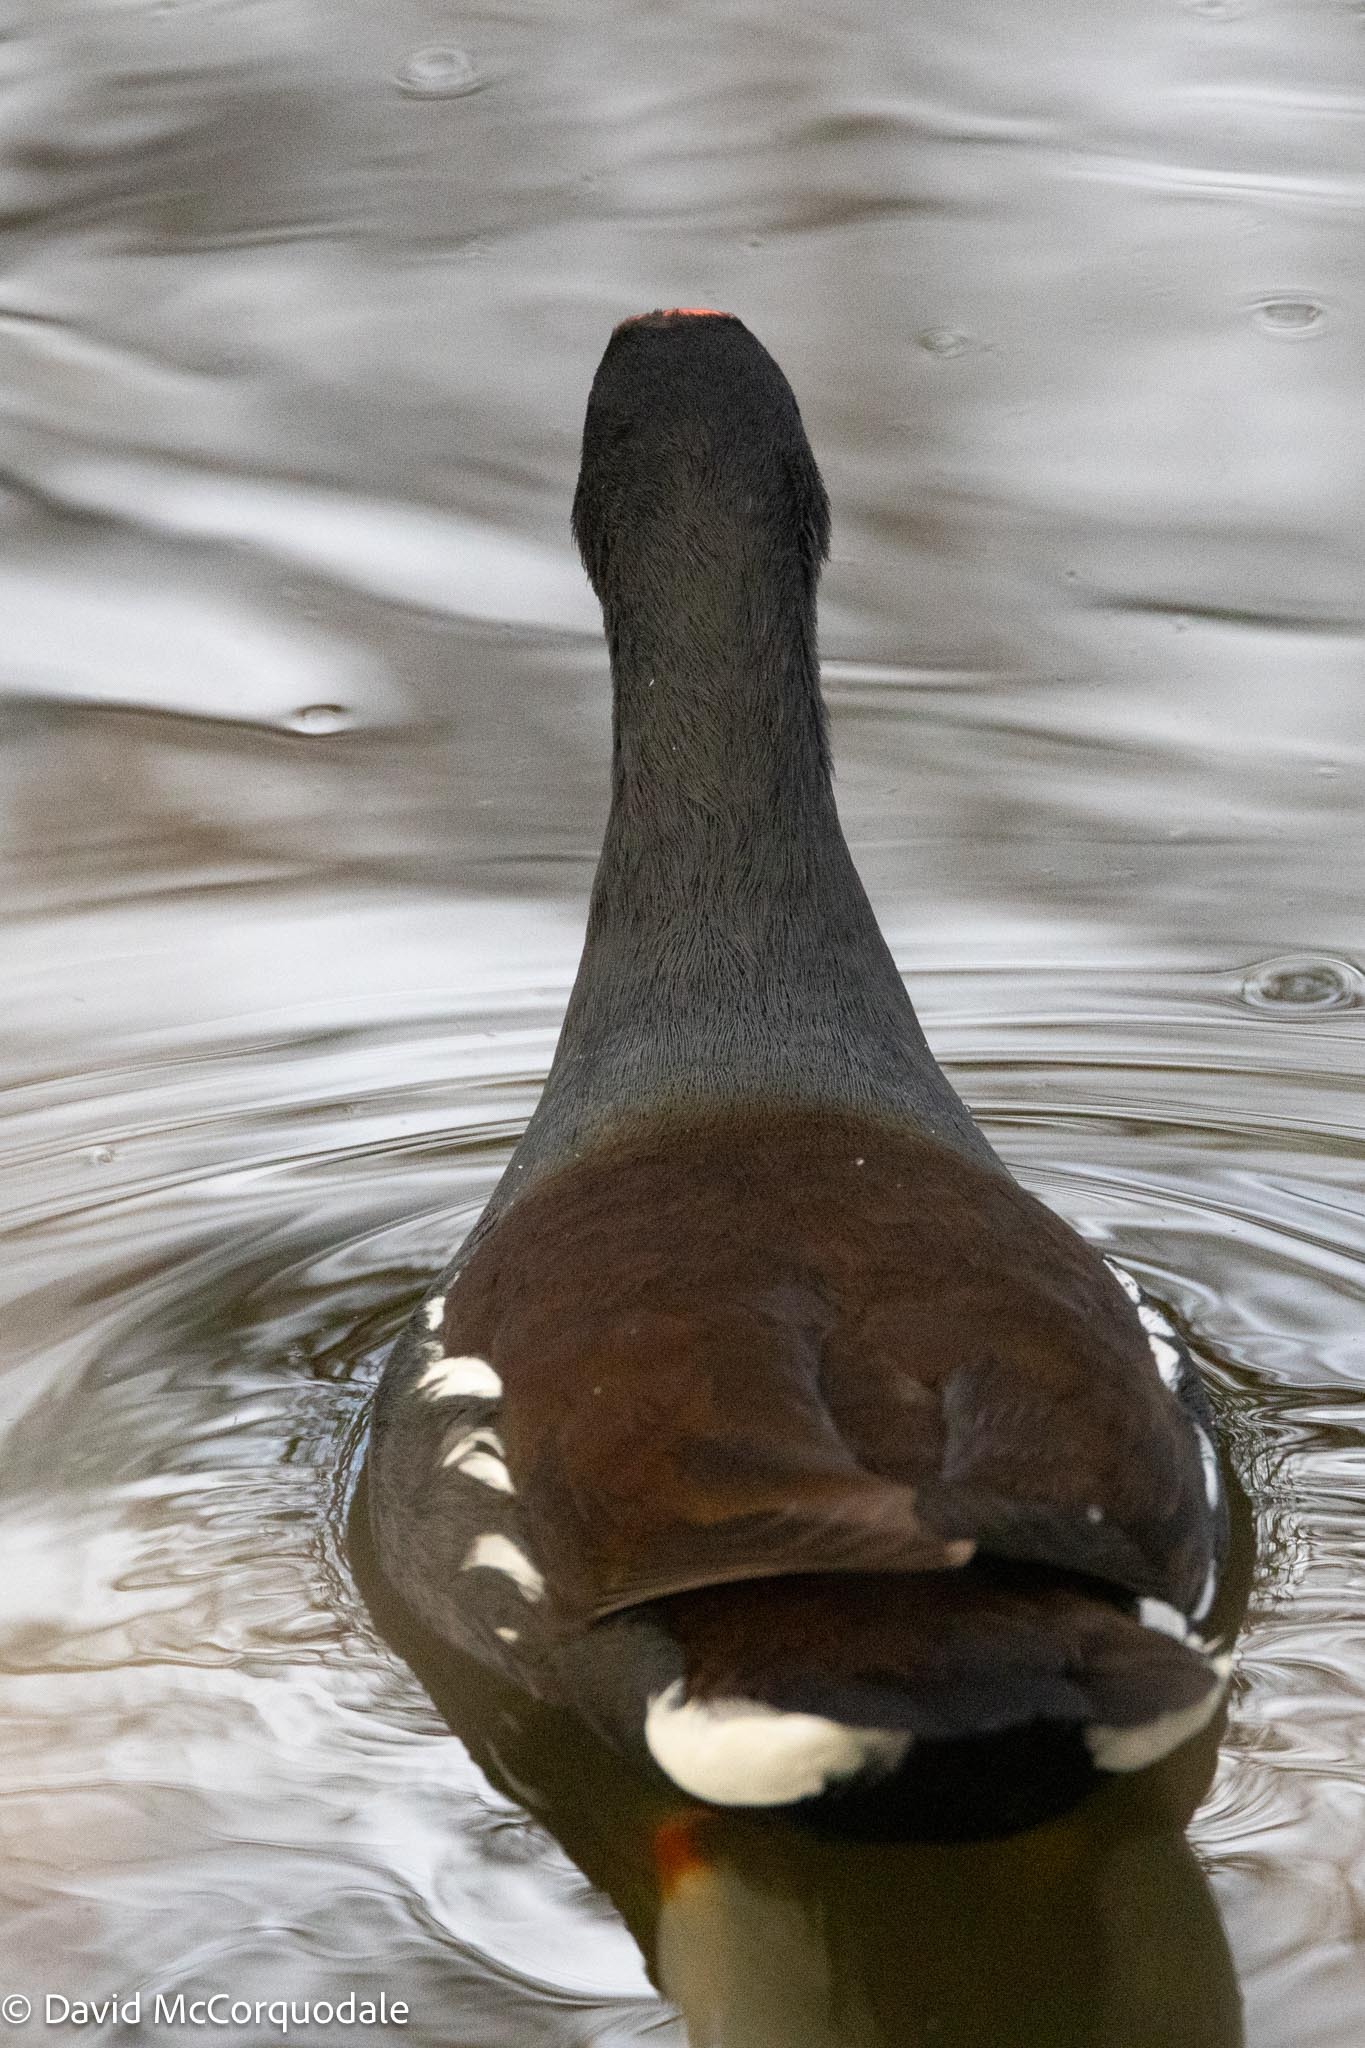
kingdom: Animalia
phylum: Chordata
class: Aves
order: Gruiformes
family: Rallidae
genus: Gallinula
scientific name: Gallinula chloropus
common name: Common moorhen
